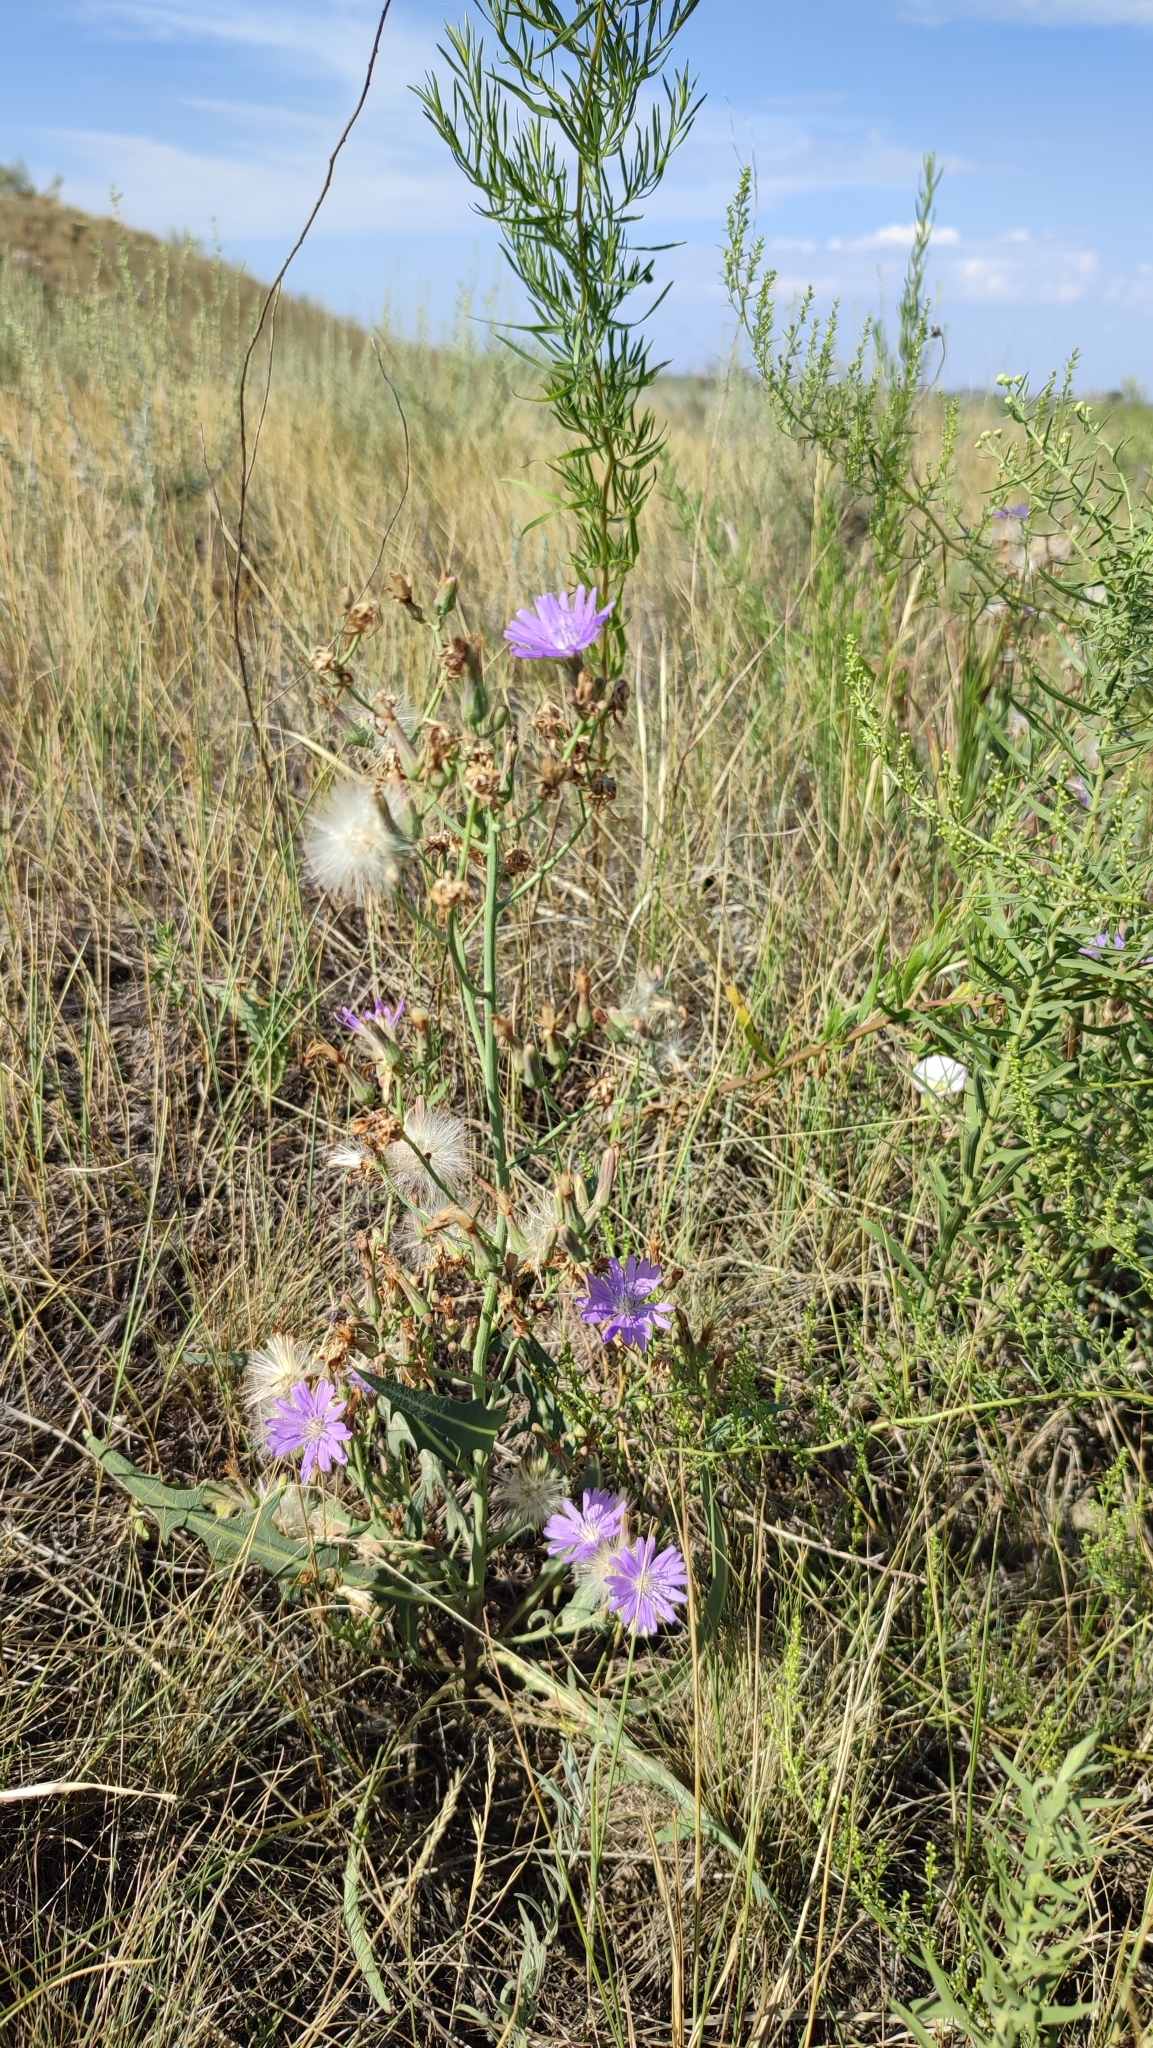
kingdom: Plantae
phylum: Tracheophyta
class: Magnoliopsida
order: Asterales
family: Asteraceae
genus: Lactuca
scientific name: Lactuca tatarica
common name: Blue lettuce
